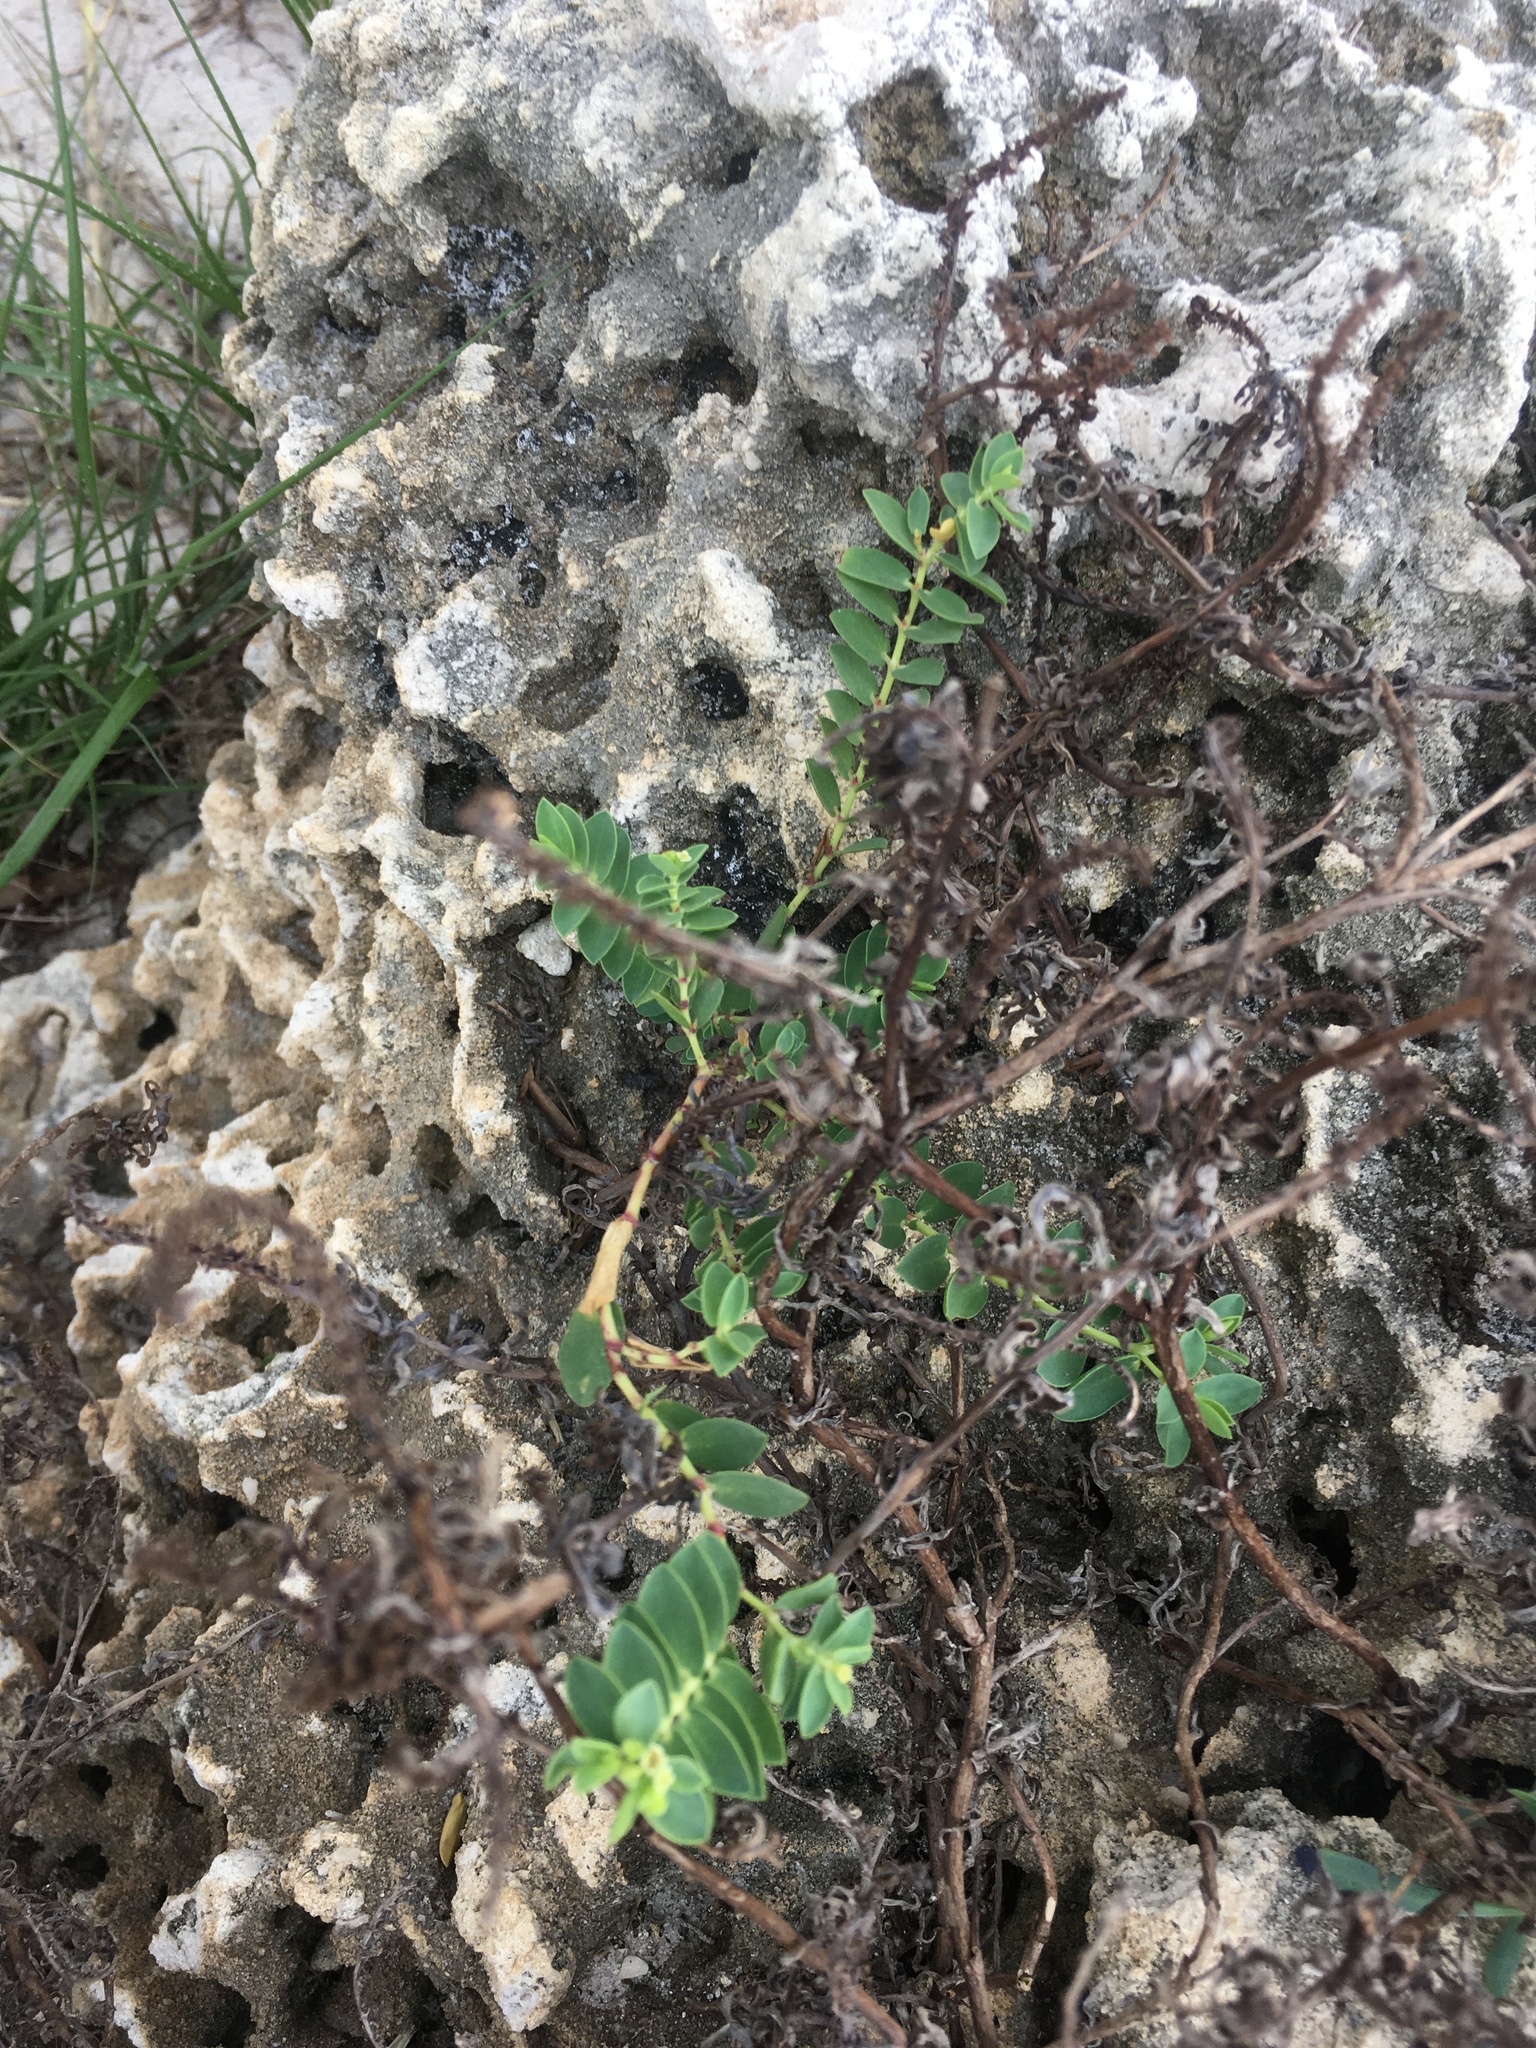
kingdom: Plantae
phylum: Tracheophyta
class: Magnoliopsida
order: Malpighiales
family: Euphorbiaceae
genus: Euphorbia
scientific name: Euphorbia mesembryanthemifolia
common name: Coastal beach sandmat
